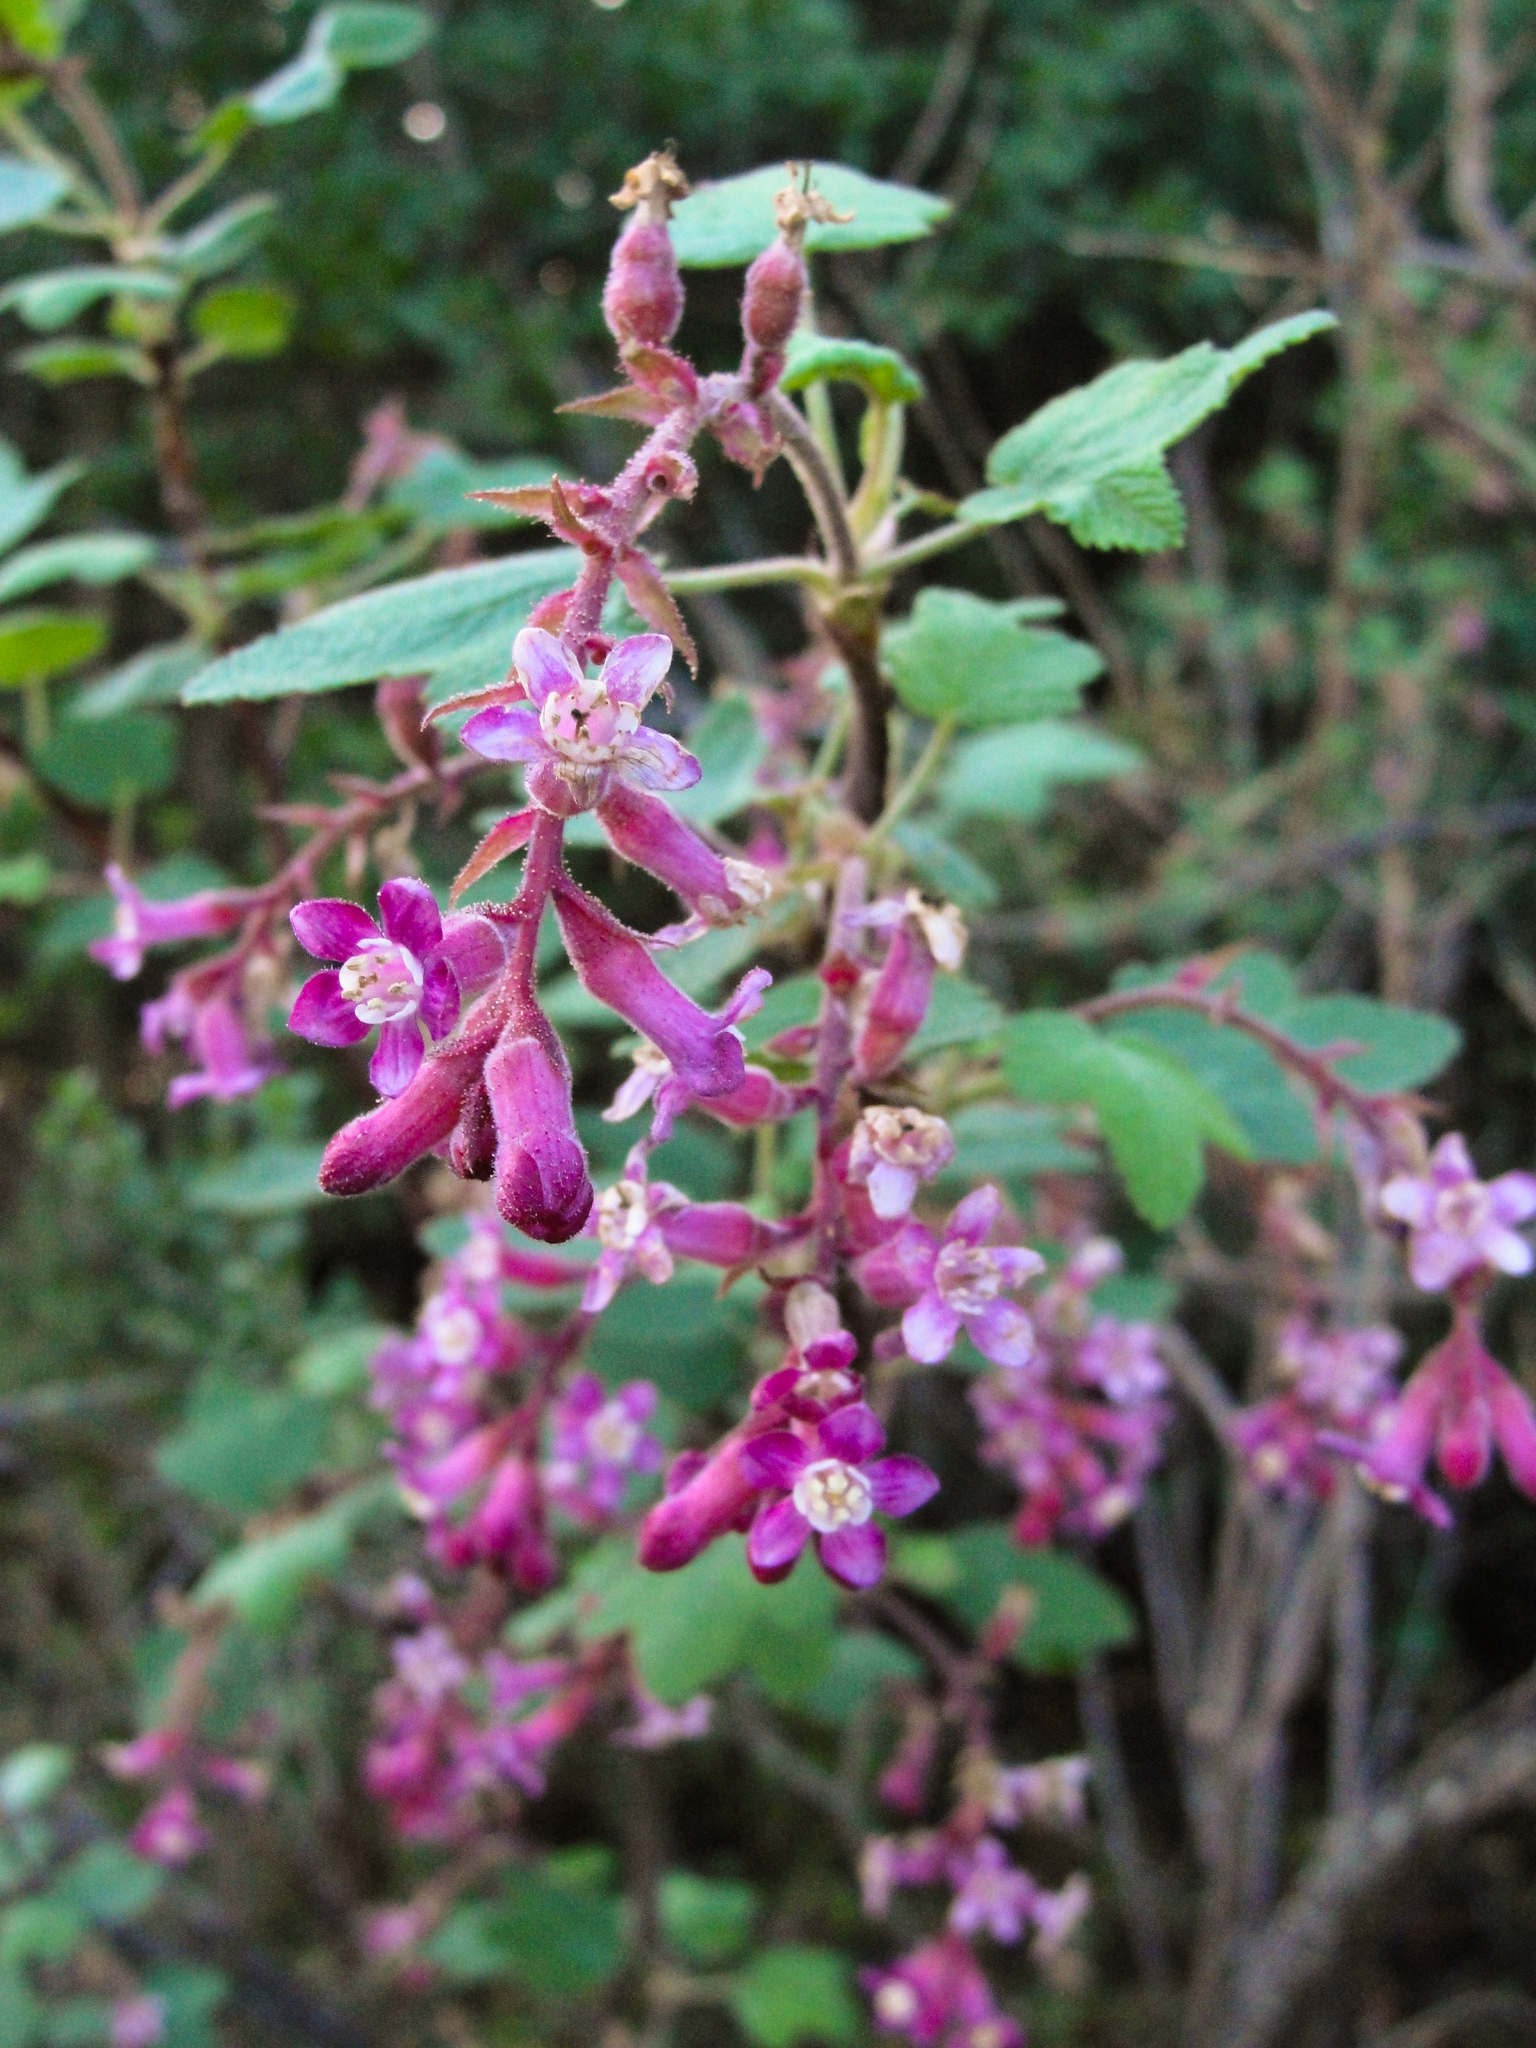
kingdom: Plantae
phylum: Tracheophyta
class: Magnoliopsida
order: Saxifragales
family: Grossulariaceae
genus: Ribes
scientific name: Ribes malvaceum
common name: Chaparral currant
